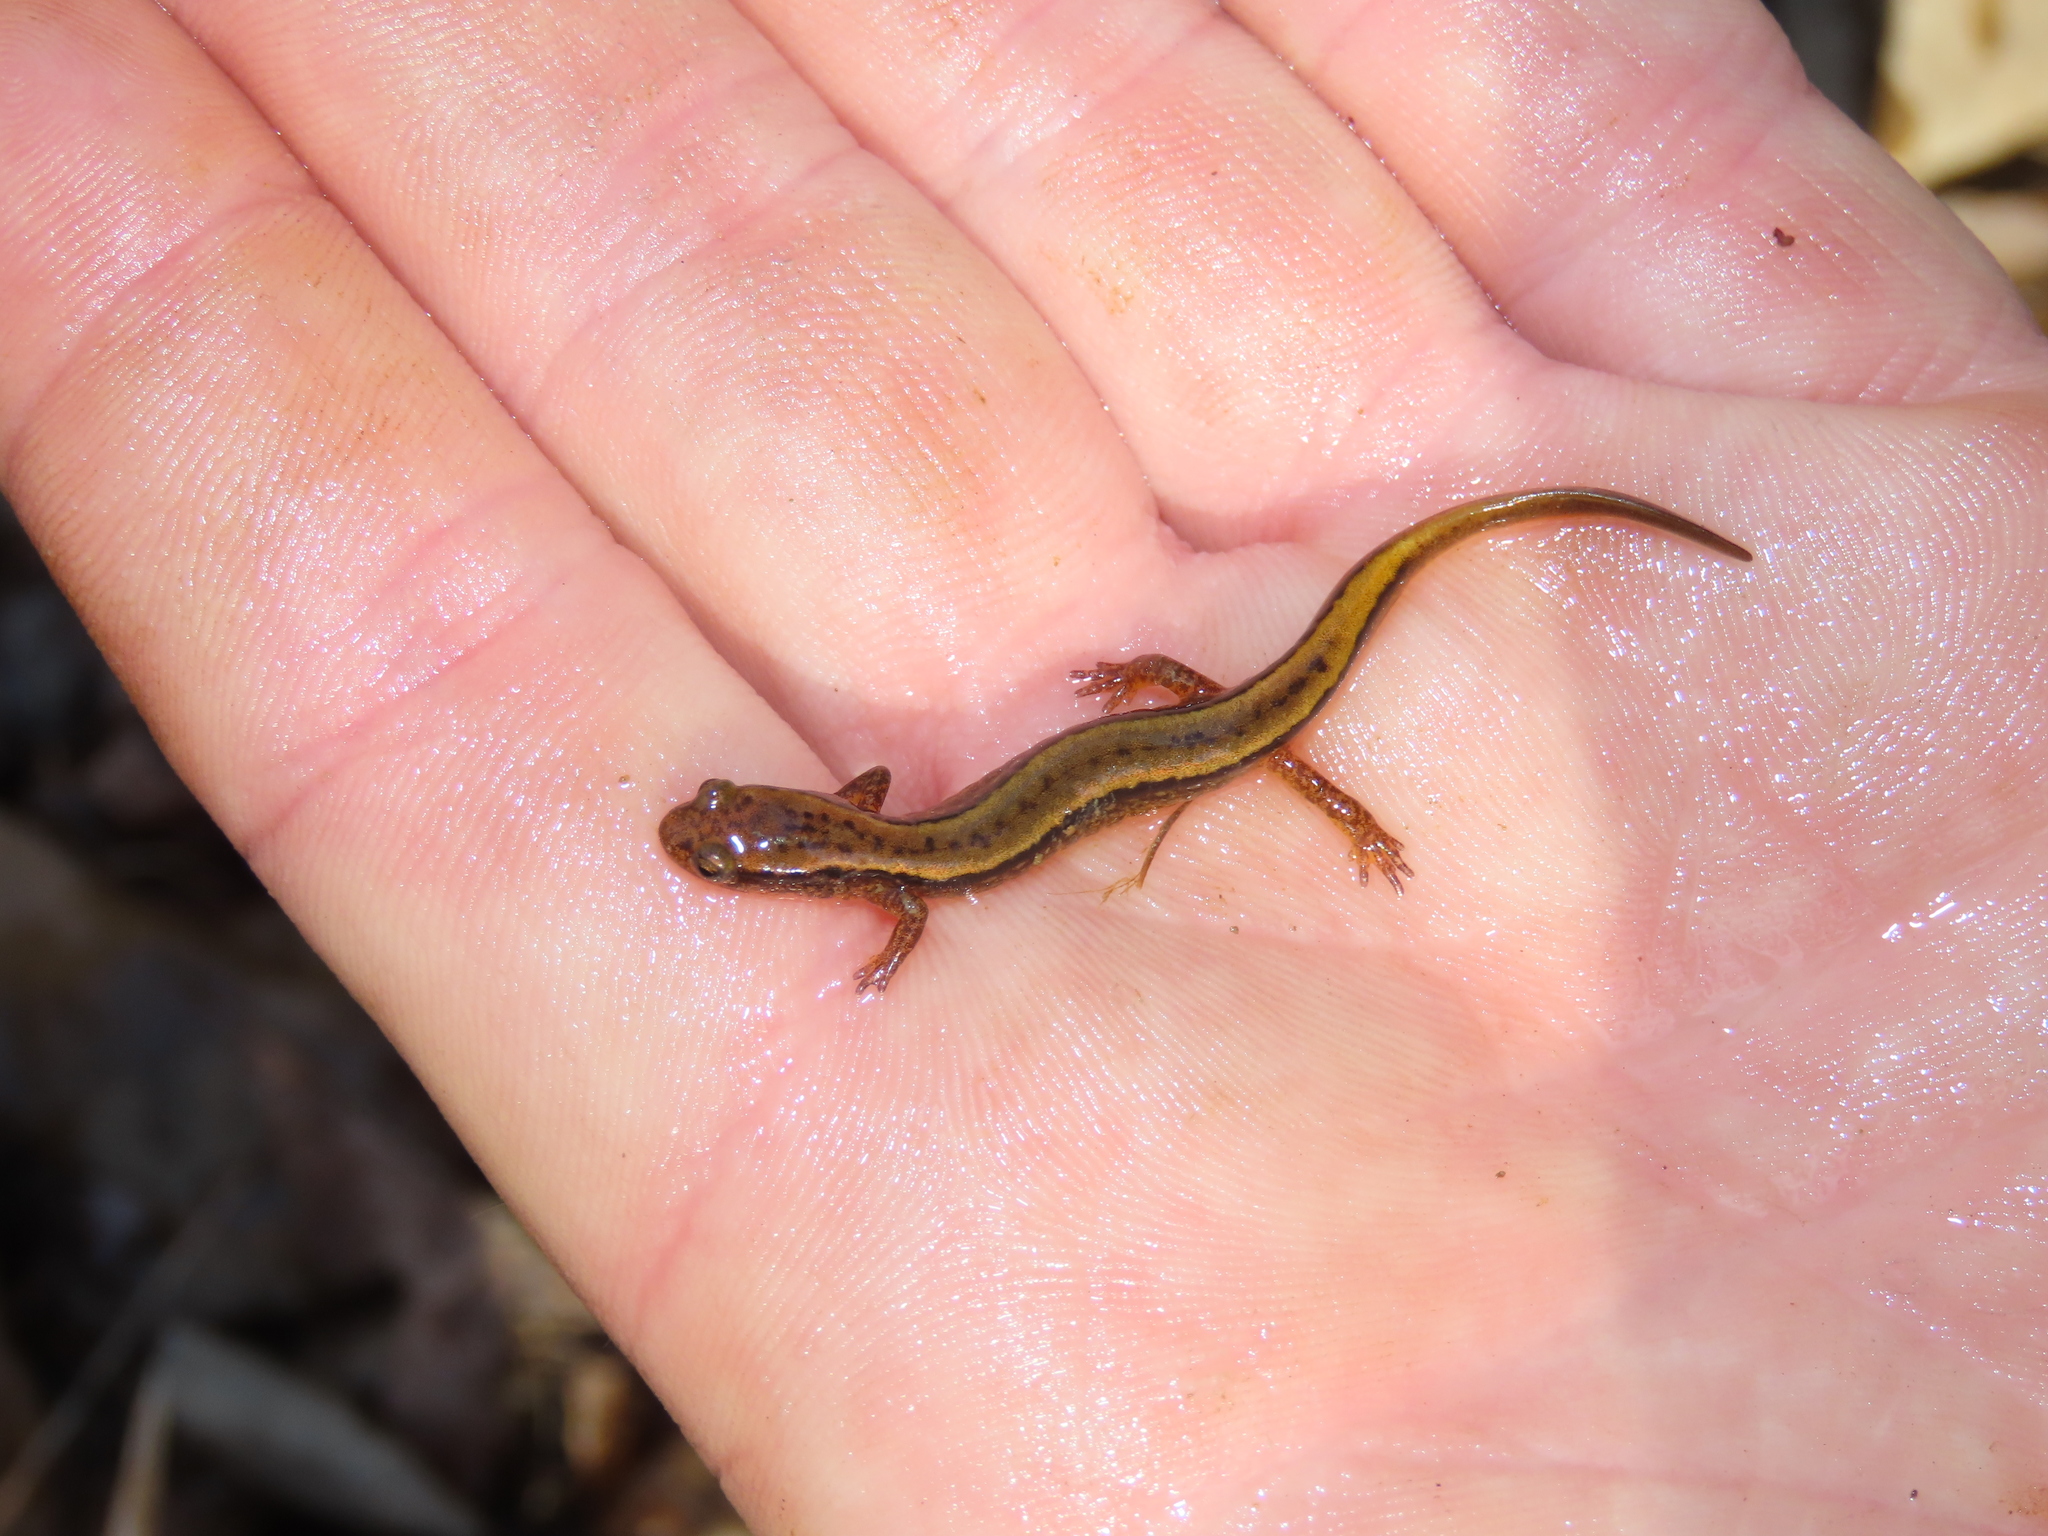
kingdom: Animalia
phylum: Chordata
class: Amphibia
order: Caudata
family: Plethodontidae
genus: Eurycea
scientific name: Eurycea bislineata
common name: Northern two-lined salamander
